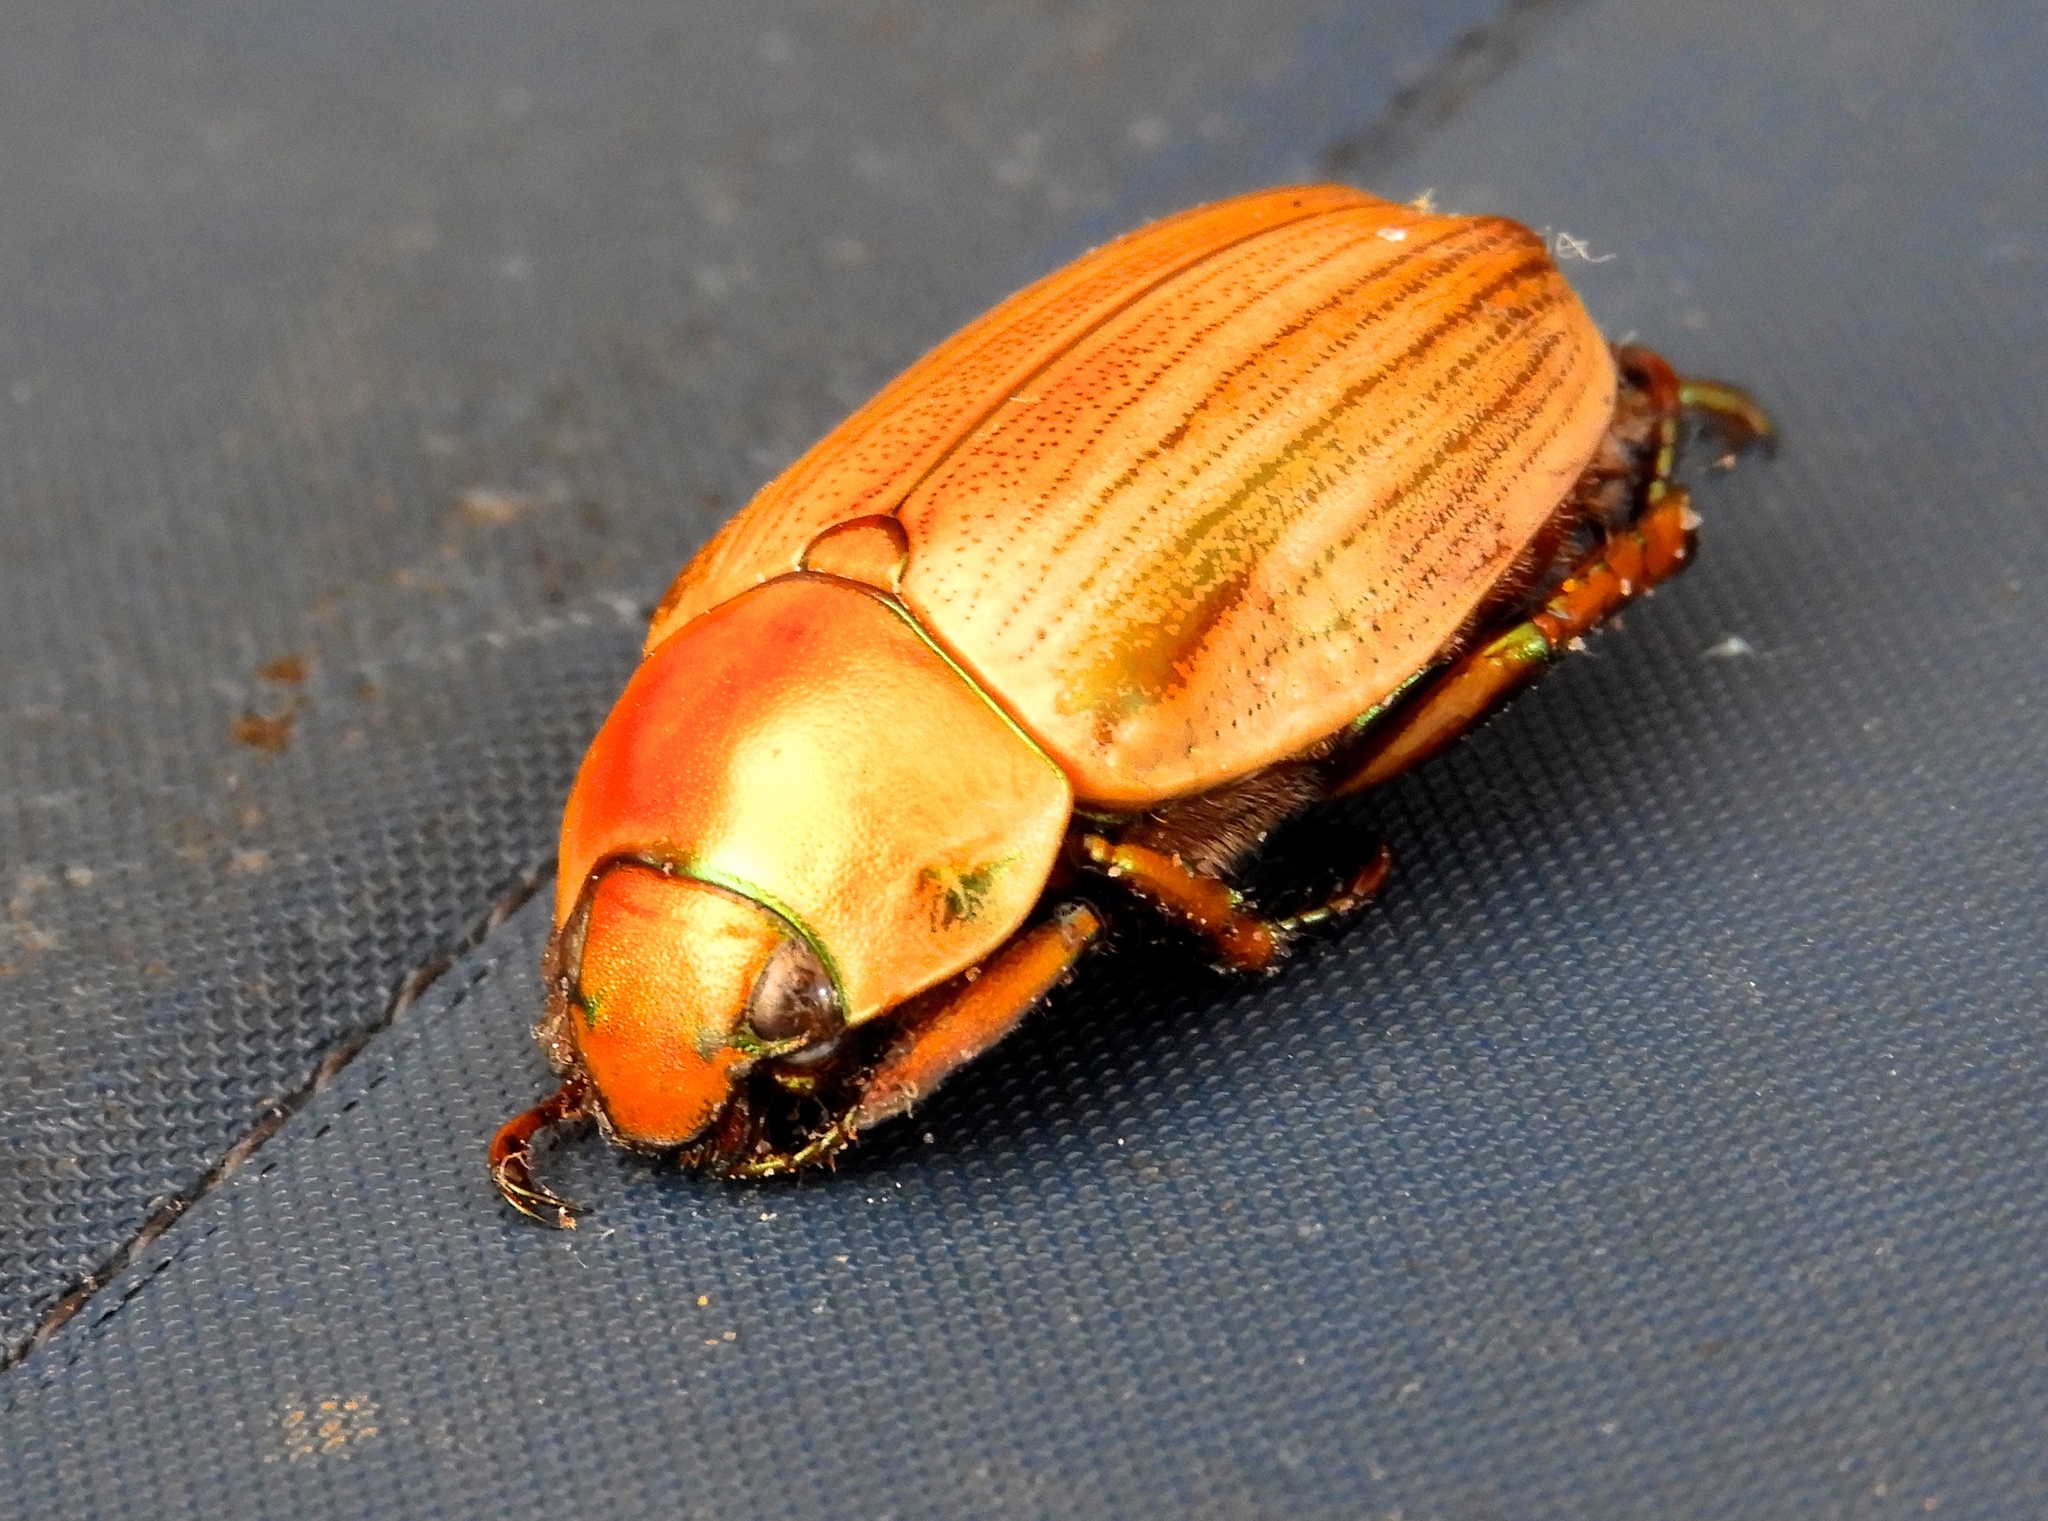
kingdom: Animalia
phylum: Arthropoda
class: Insecta
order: Coleoptera
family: Scarabaeidae
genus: Pelidnota
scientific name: Pelidnota virescens
